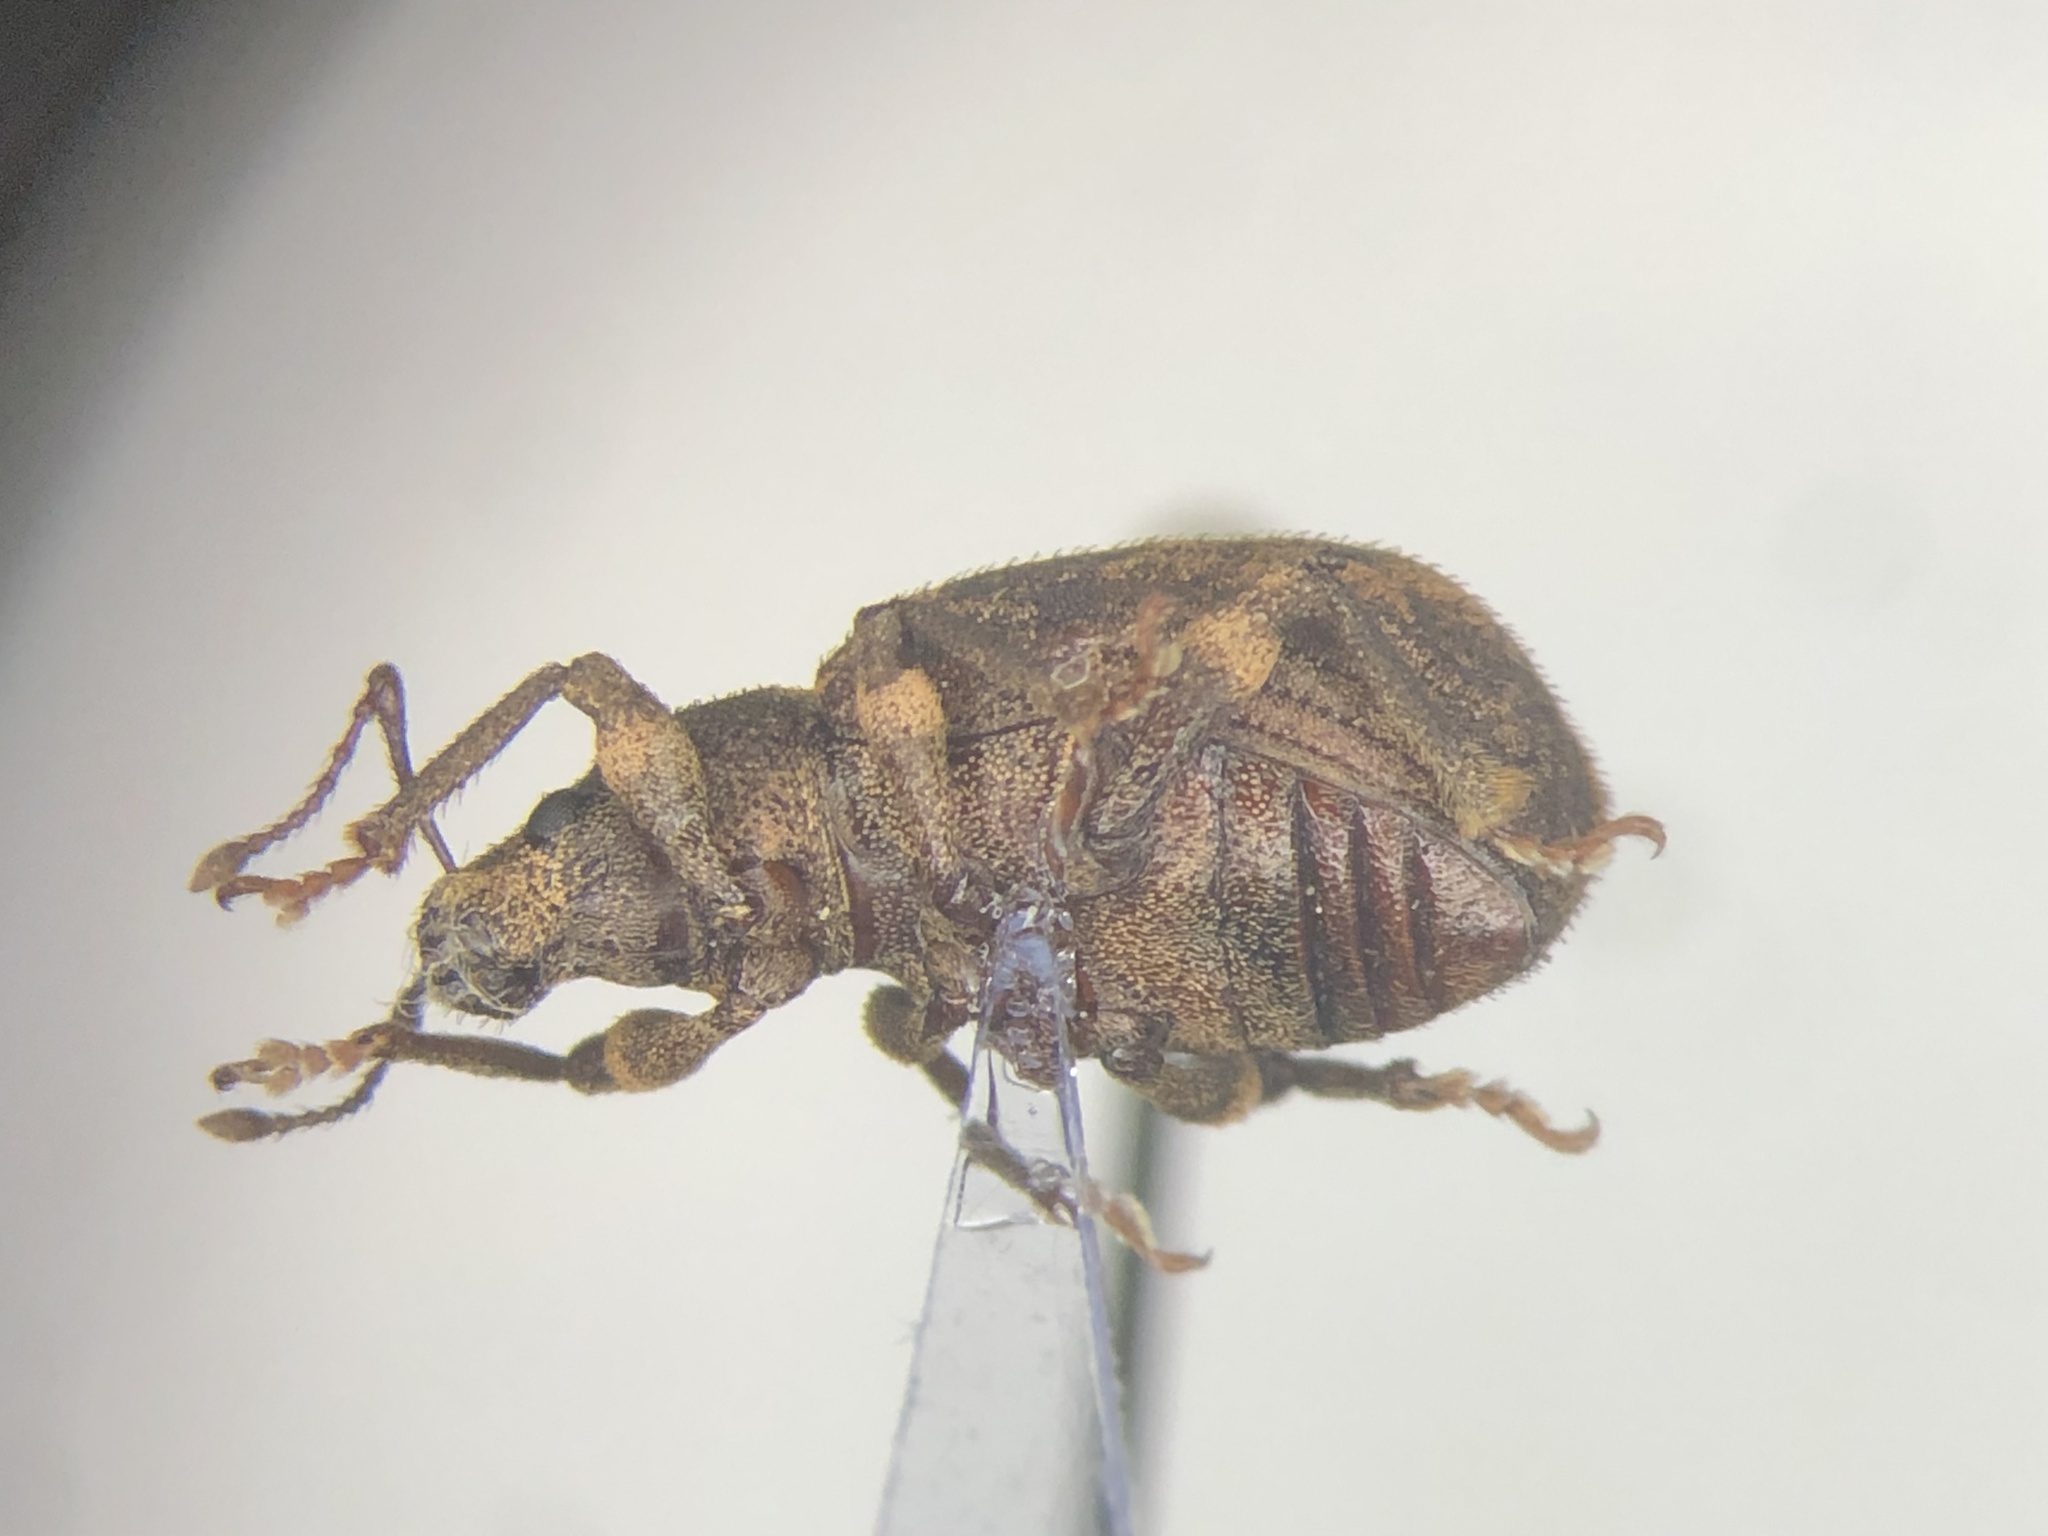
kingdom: Animalia
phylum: Arthropoda
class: Insecta
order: Coleoptera
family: Curculionidae
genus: Nemocestes
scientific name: Nemocestes horni
